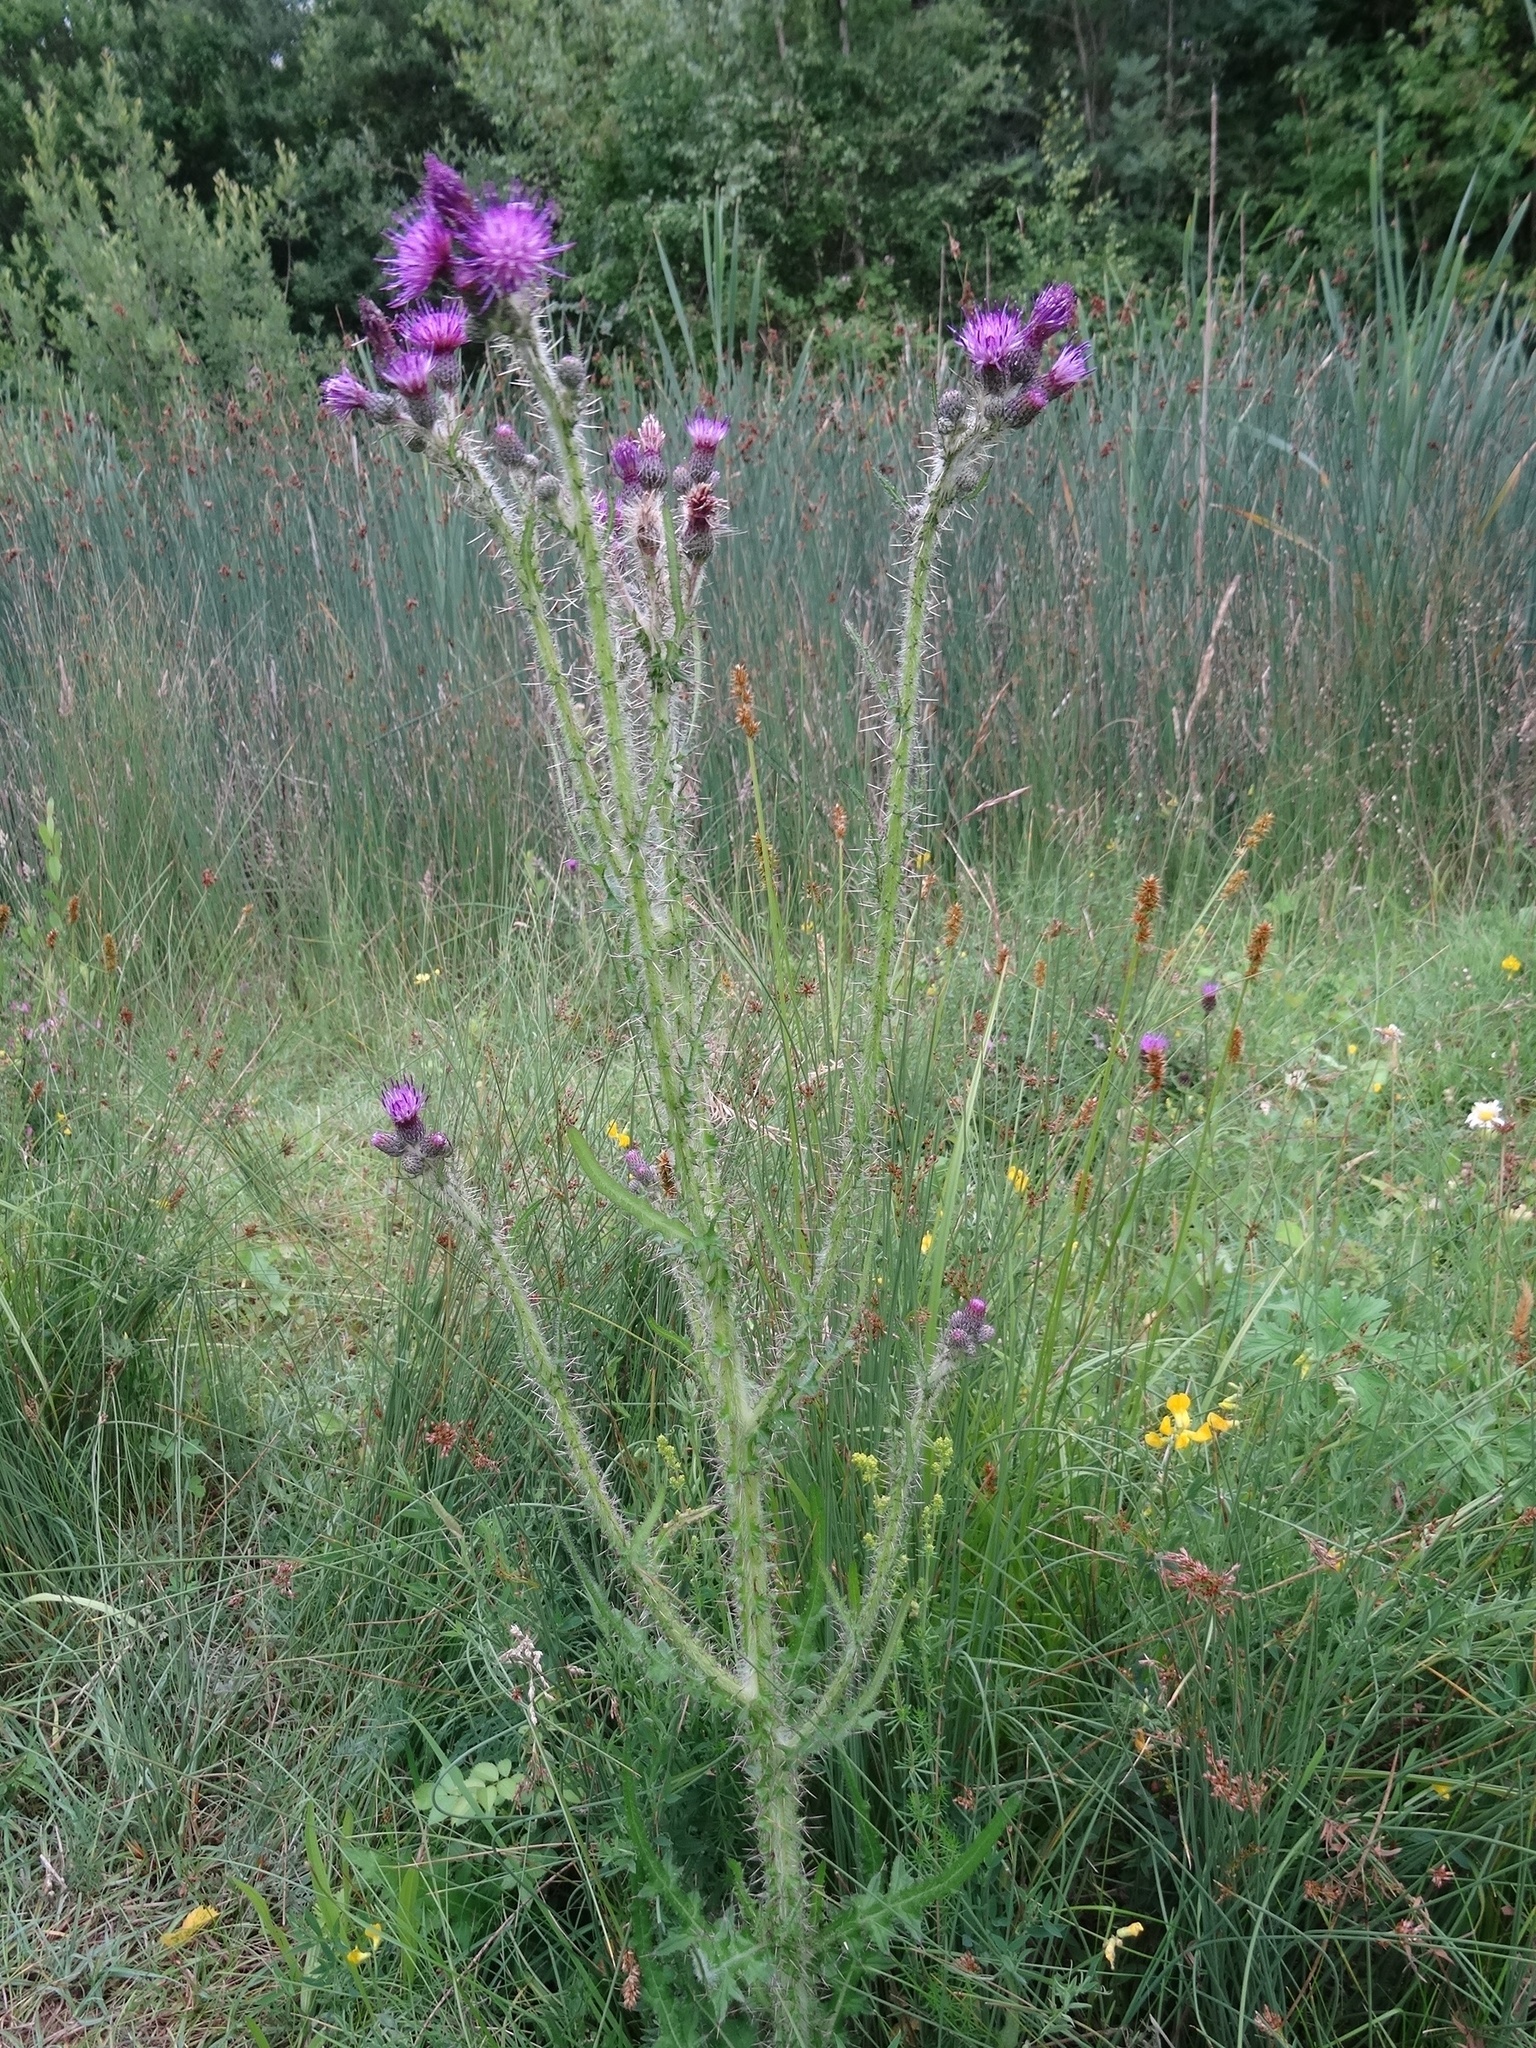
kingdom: Plantae
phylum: Tracheophyta
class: Magnoliopsida
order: Asterales
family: Asteraceae
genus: Cirsium
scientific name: Cirsium palustre
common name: Marsh thistle
